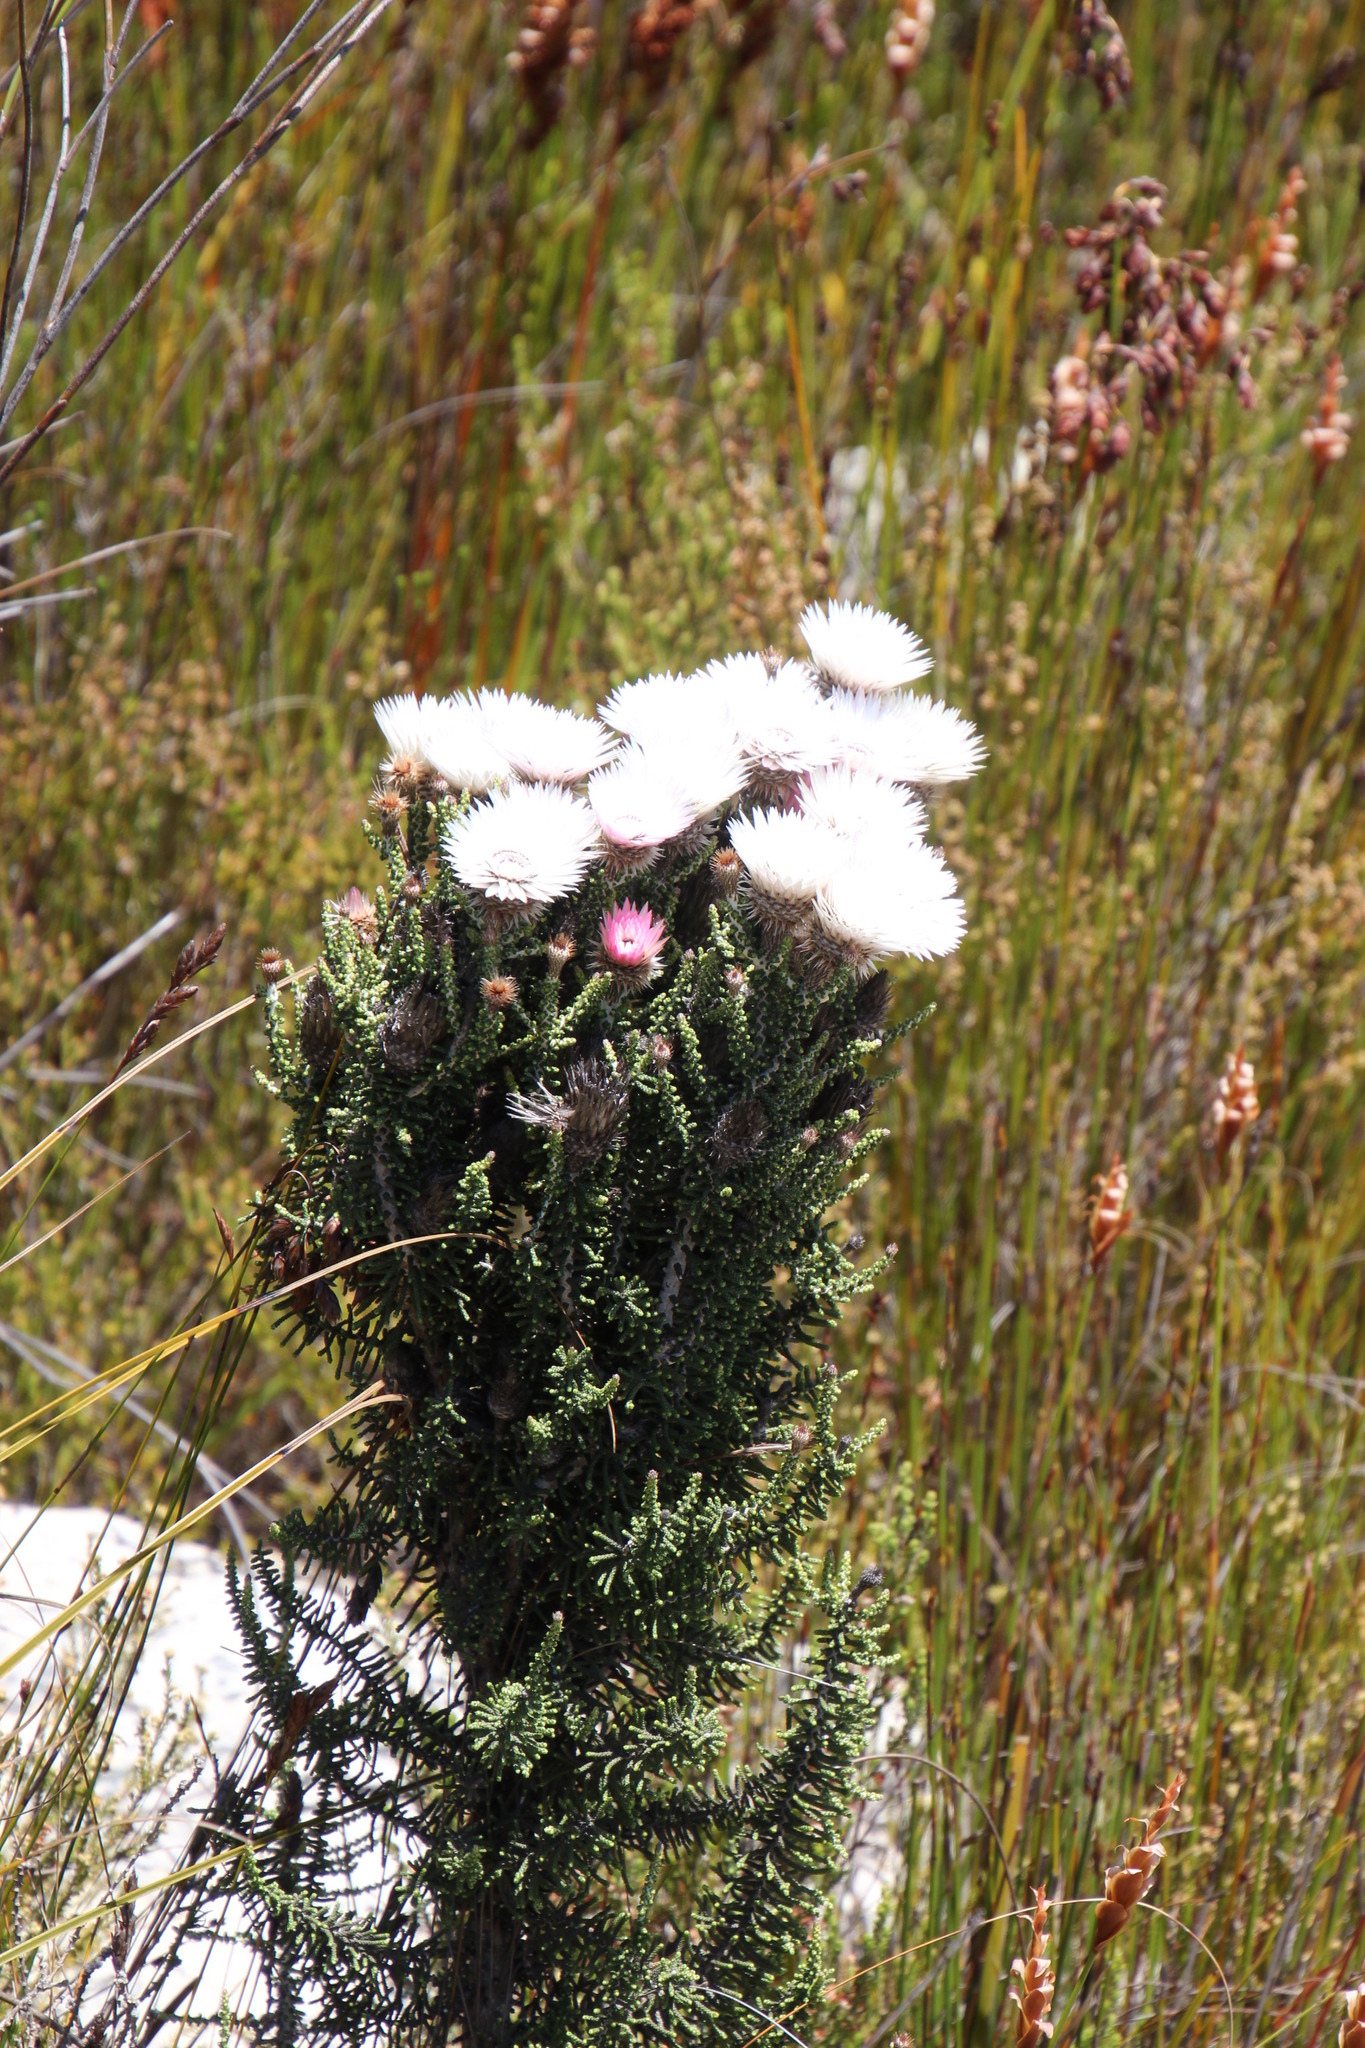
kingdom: Plantae
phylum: Tracheophyta
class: Magnoliopsida
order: Asterales
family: Asteraceae
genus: Phaenocoma
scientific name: Phaenocoma prolifera
